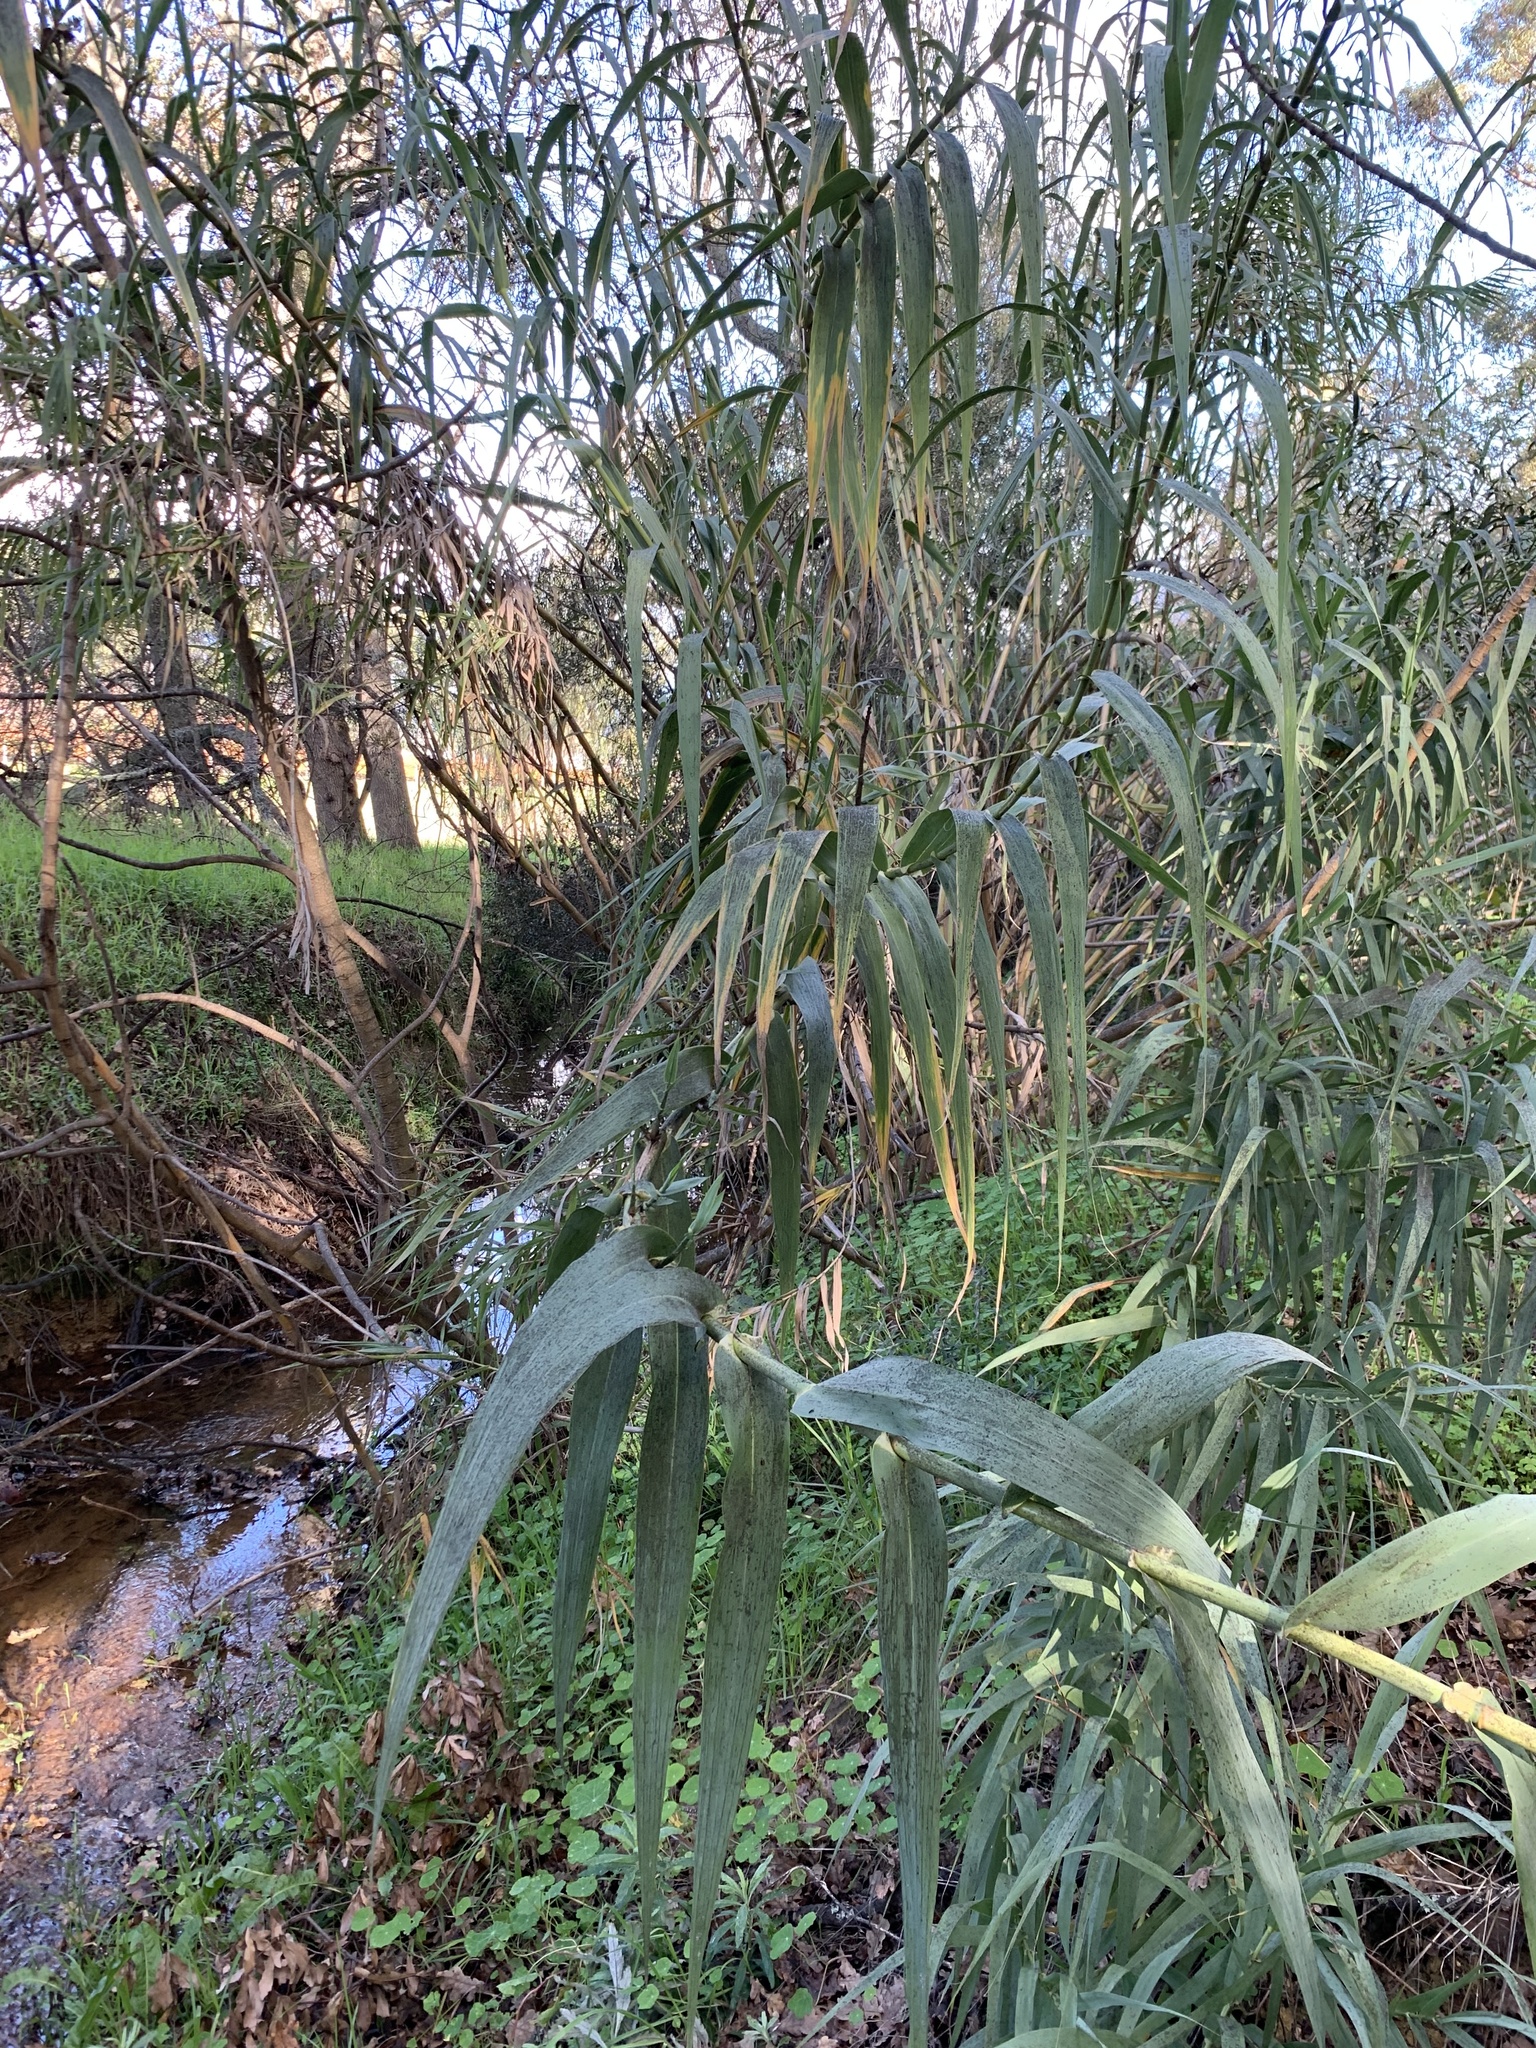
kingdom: Plantae
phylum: Tracheophyta
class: Liliopsida
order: Poales
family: Poaceae
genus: Arundo
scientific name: Arundo donax
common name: Giant reed
